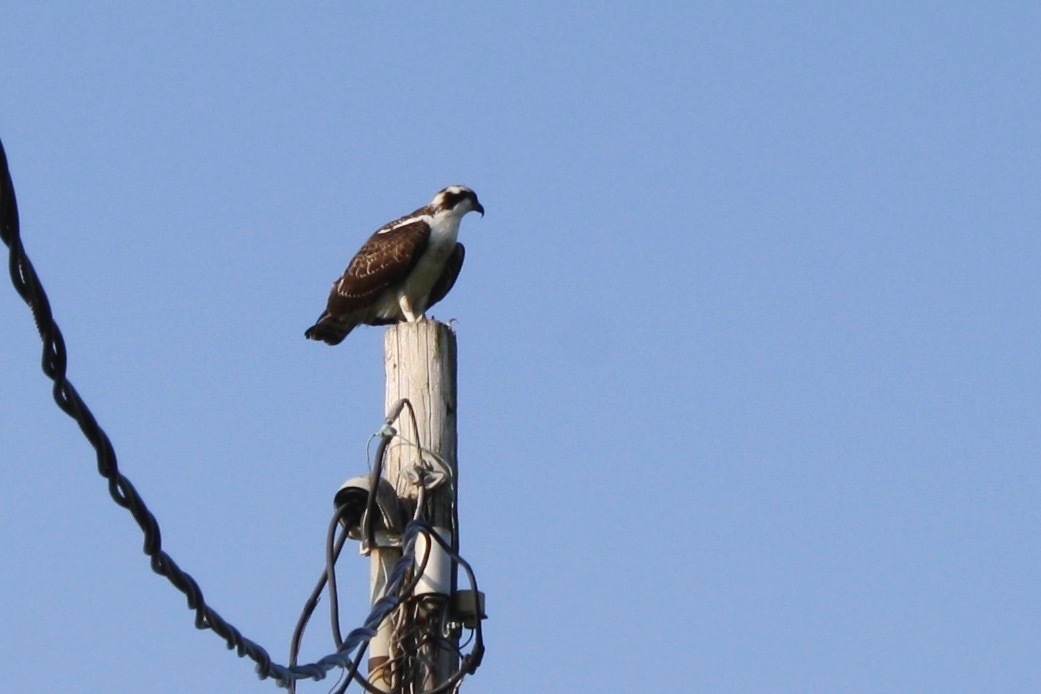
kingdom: Animalia
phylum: Chordata
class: Aves
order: Accipitriformes
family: Pandionidae
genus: Pandion
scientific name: Pandion haliaetus
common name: Osprey
